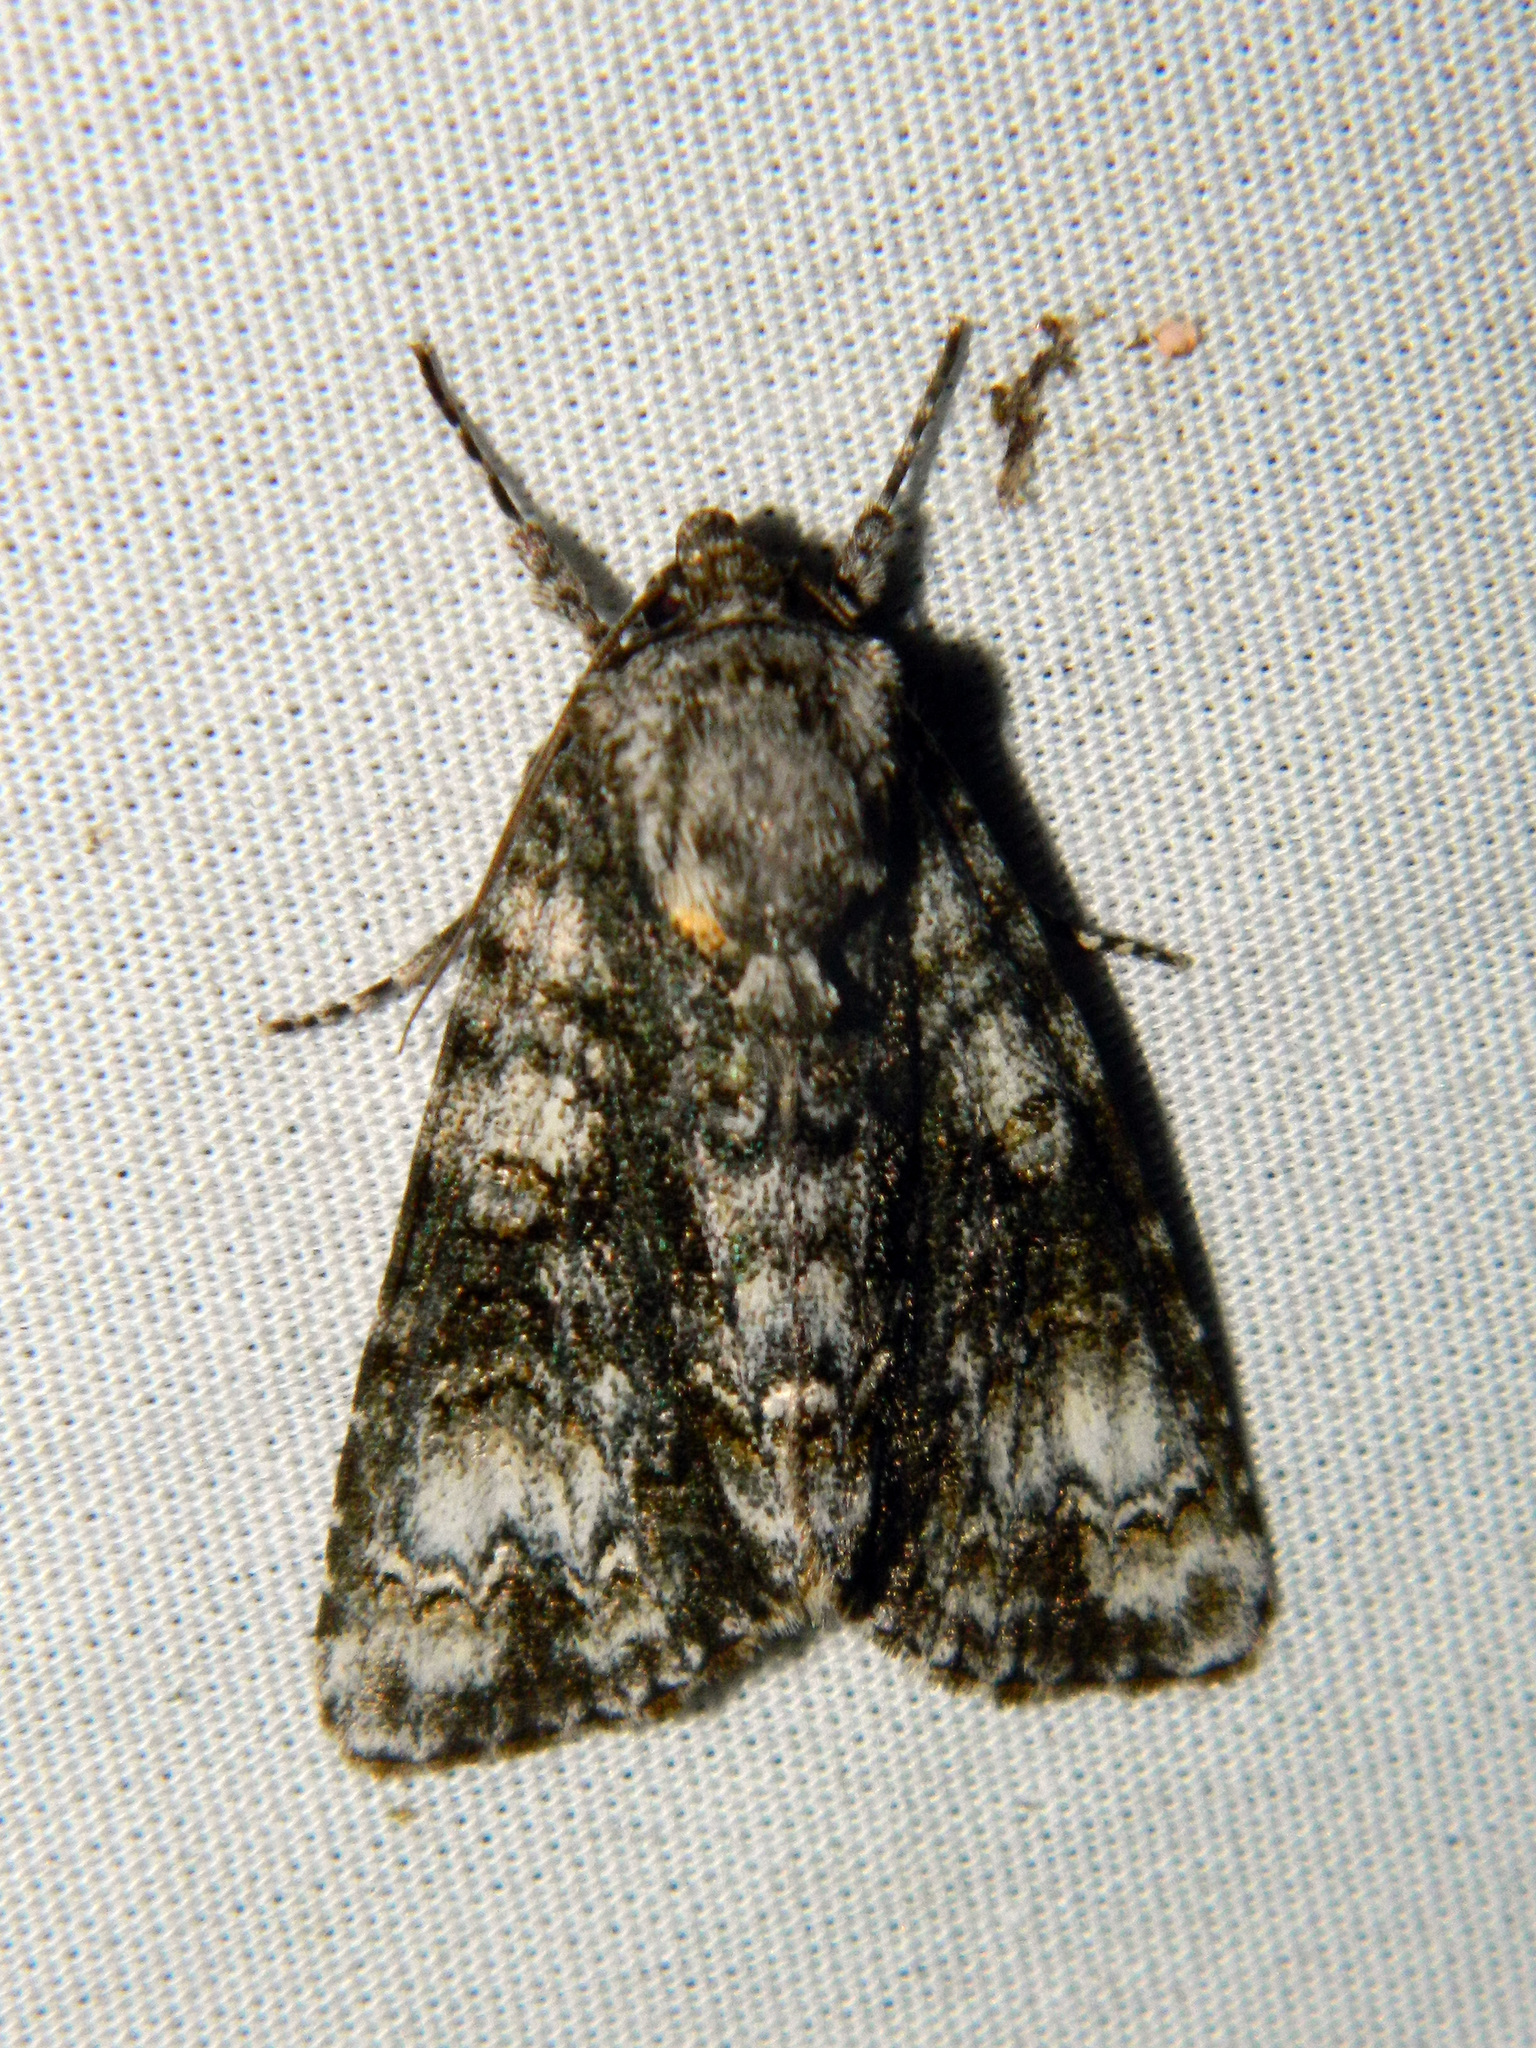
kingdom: Animalia
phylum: Arthropoda
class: Insecta
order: Lepidoptera
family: Noctuidae
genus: Acronicta
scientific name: Acronicta superans
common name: Splendid dagger
